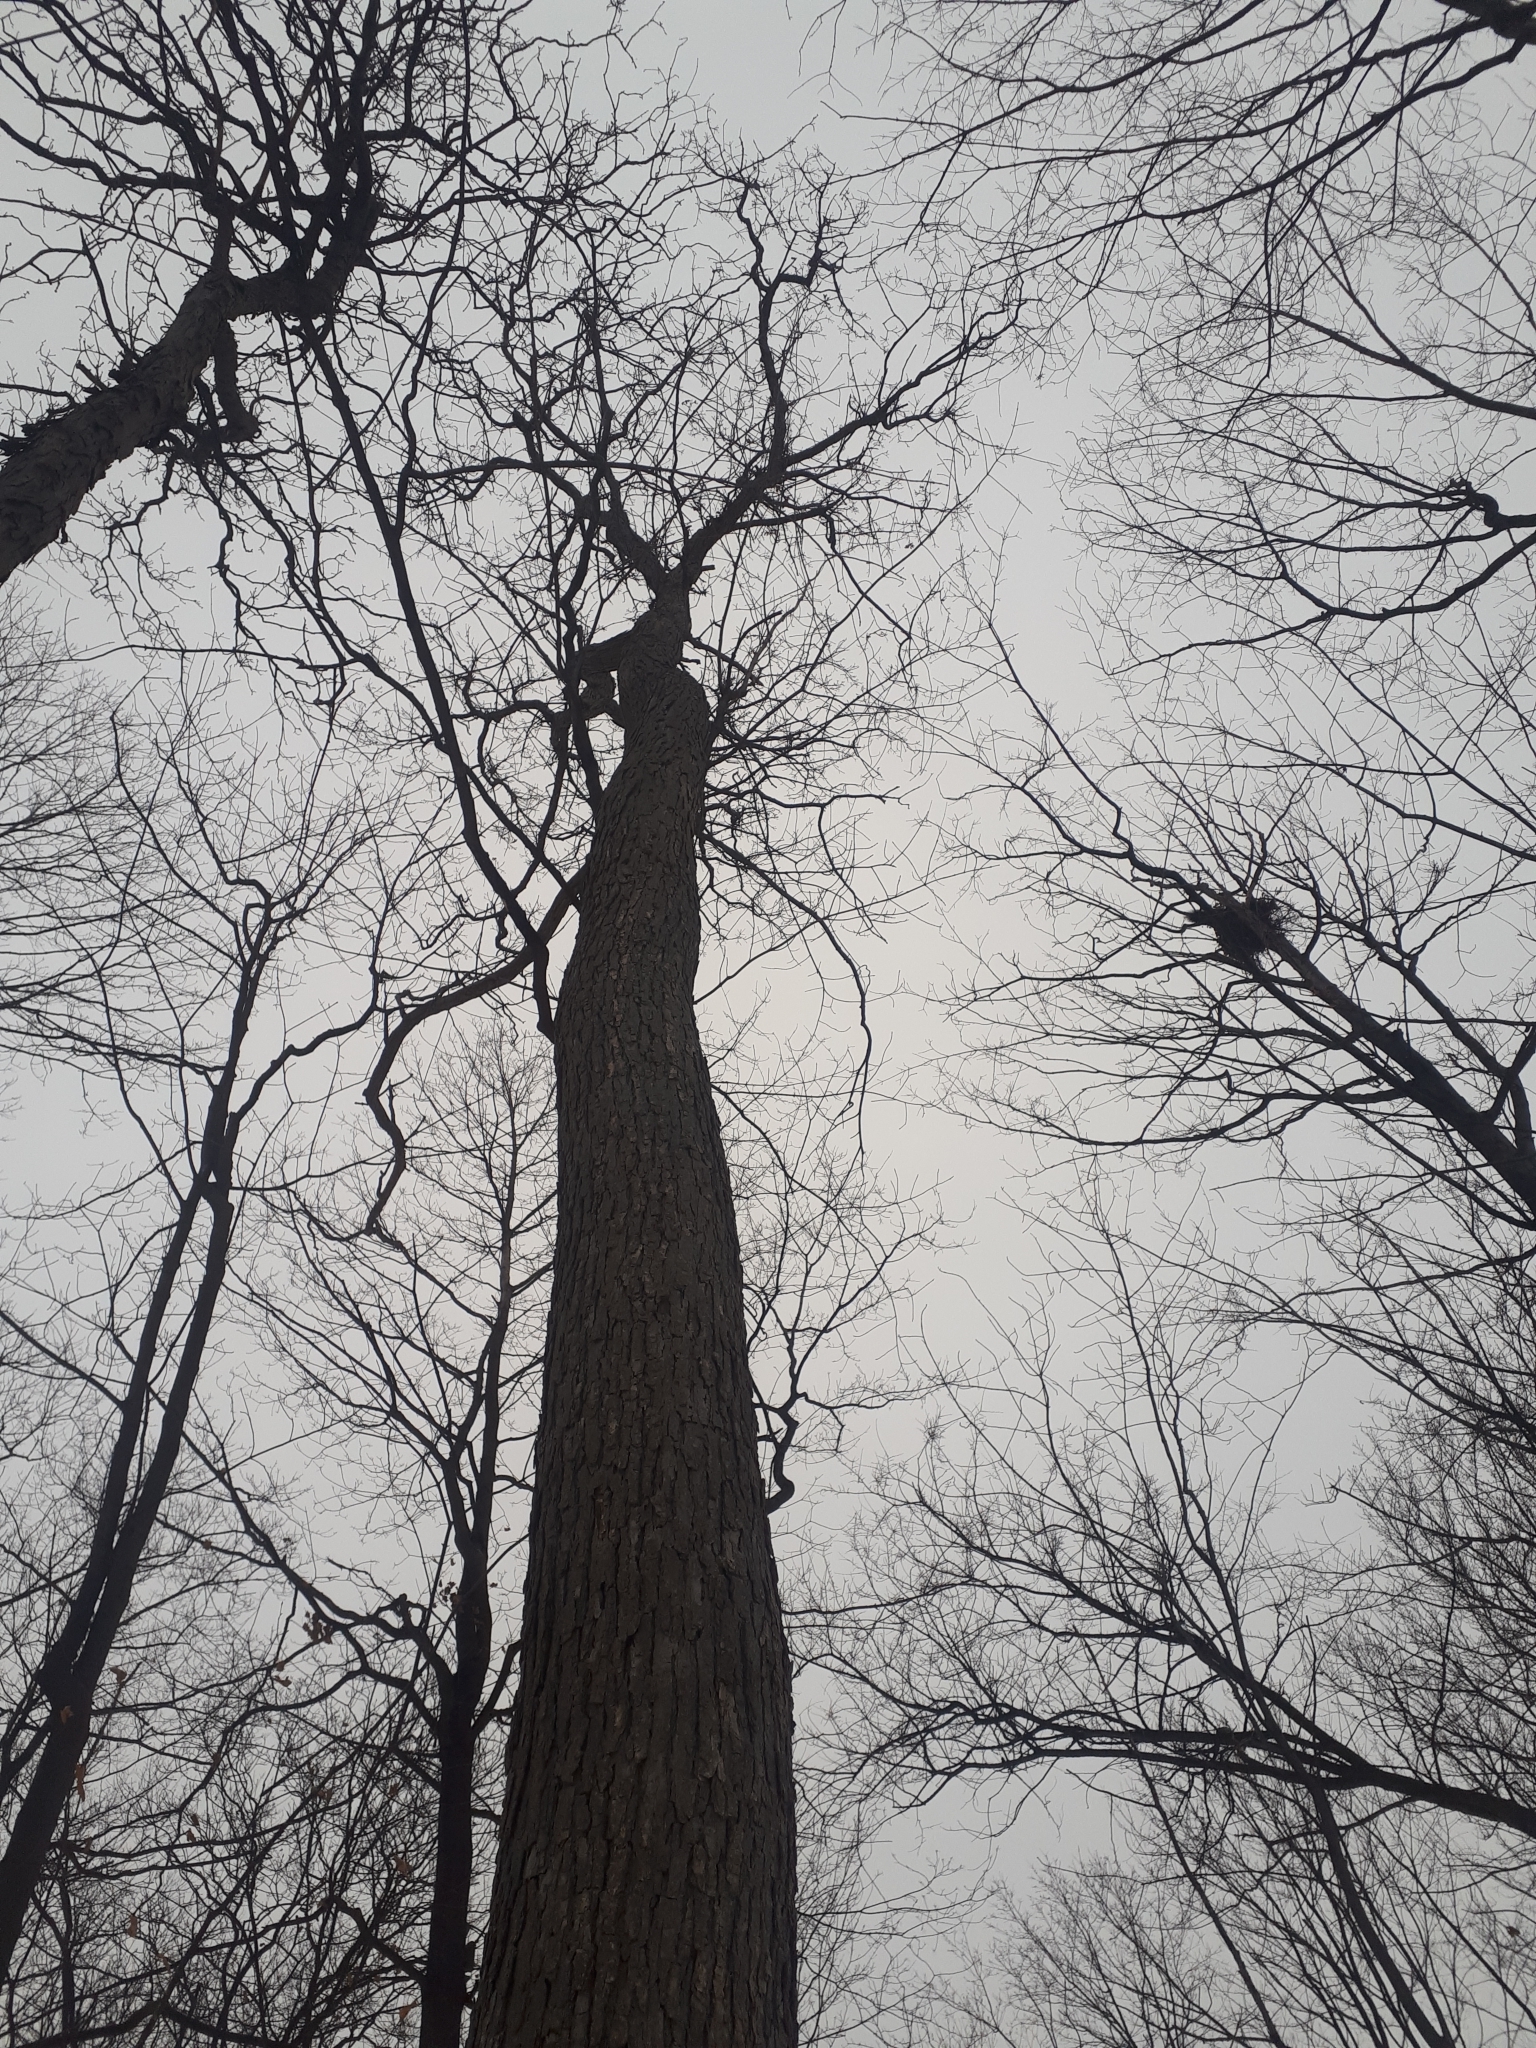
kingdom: Plantae
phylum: Tracheophyta
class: Magnoliopsida
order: Fagales
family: Fagaceae
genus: Quercus
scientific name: Quercus alba
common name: White oak
